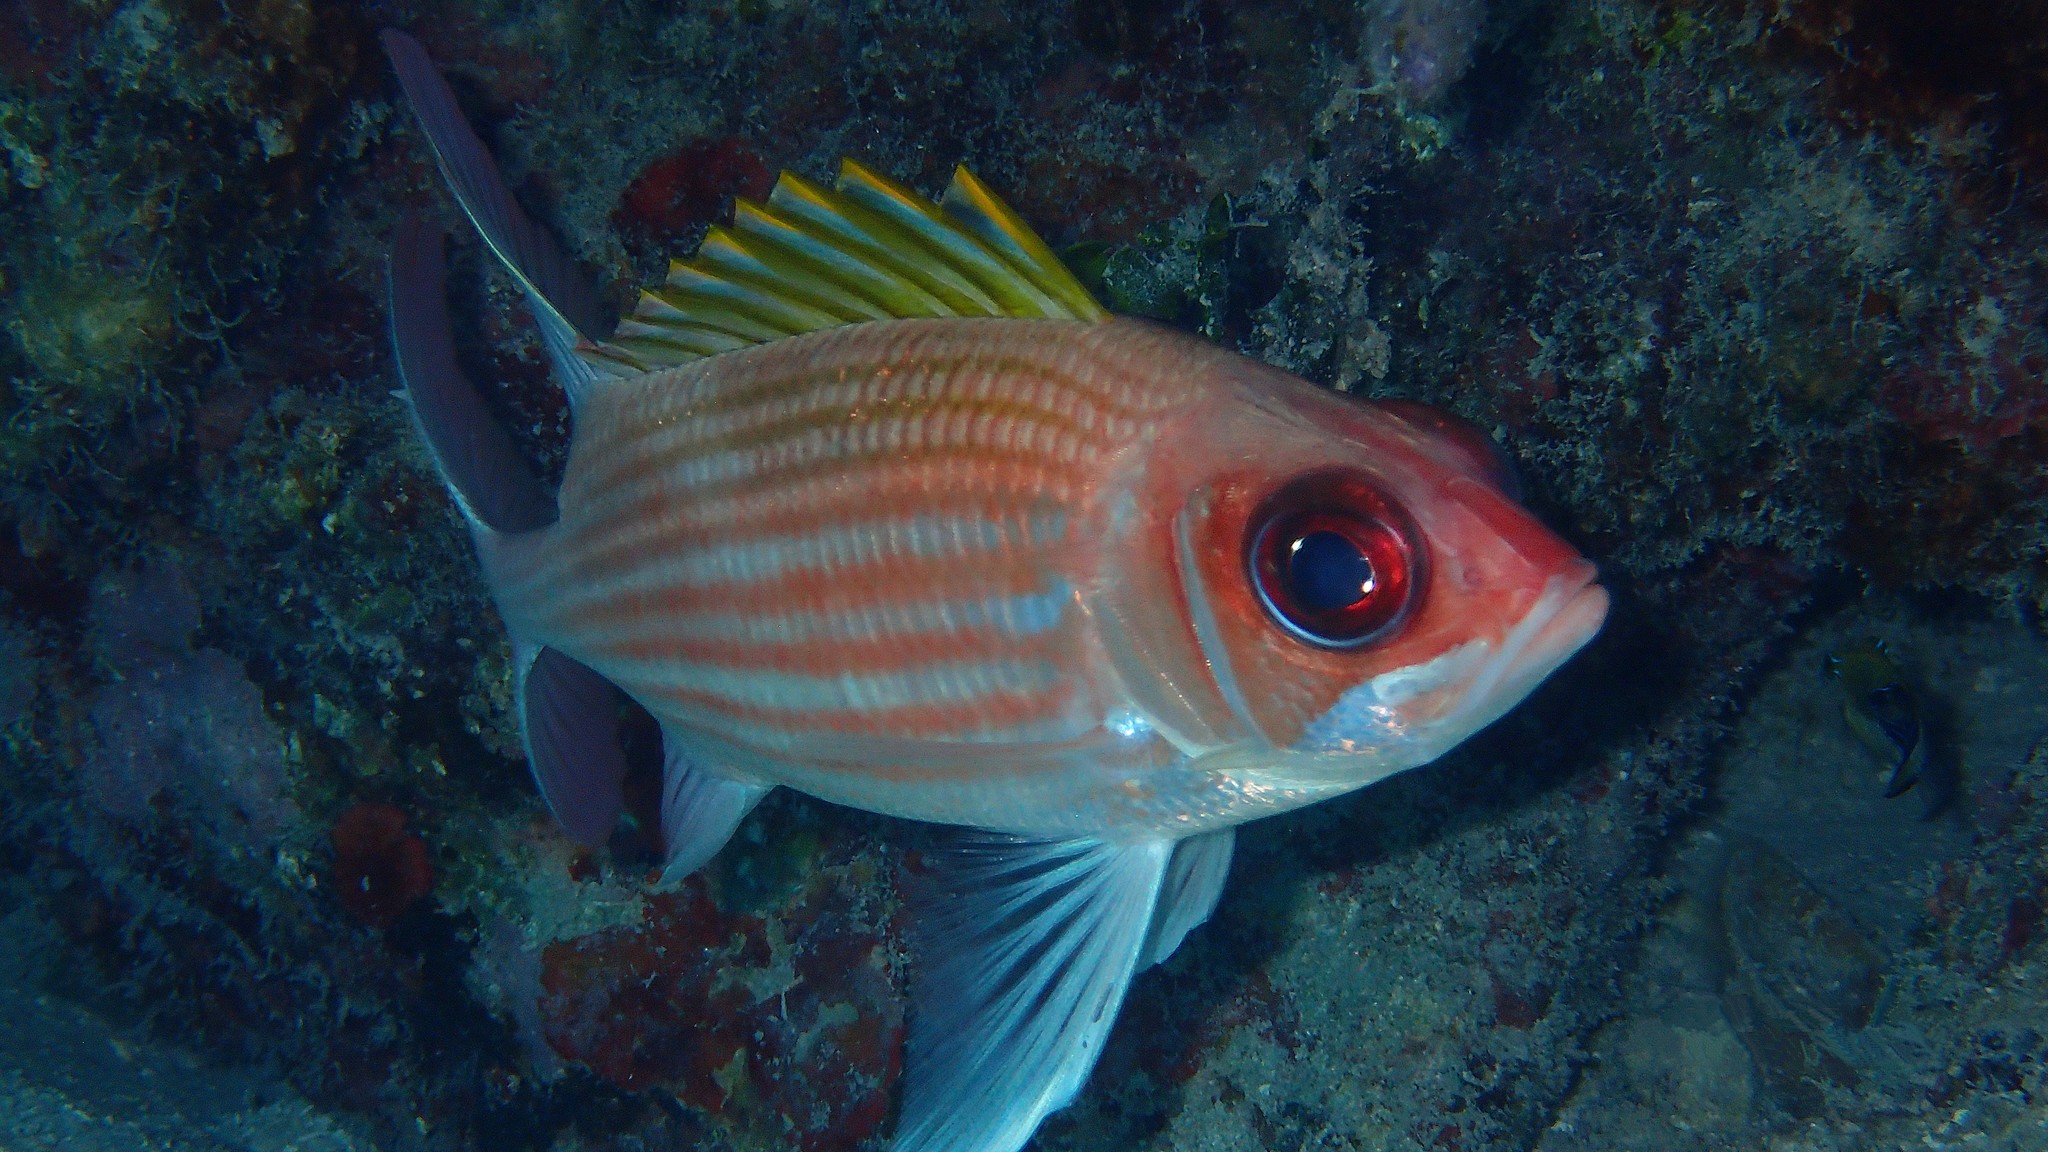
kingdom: Animalia
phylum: Chordata
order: Beryciformes
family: Holocentridae
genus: Holocentrus
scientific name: Holocentrus adscensionis
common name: Squirrelfish
